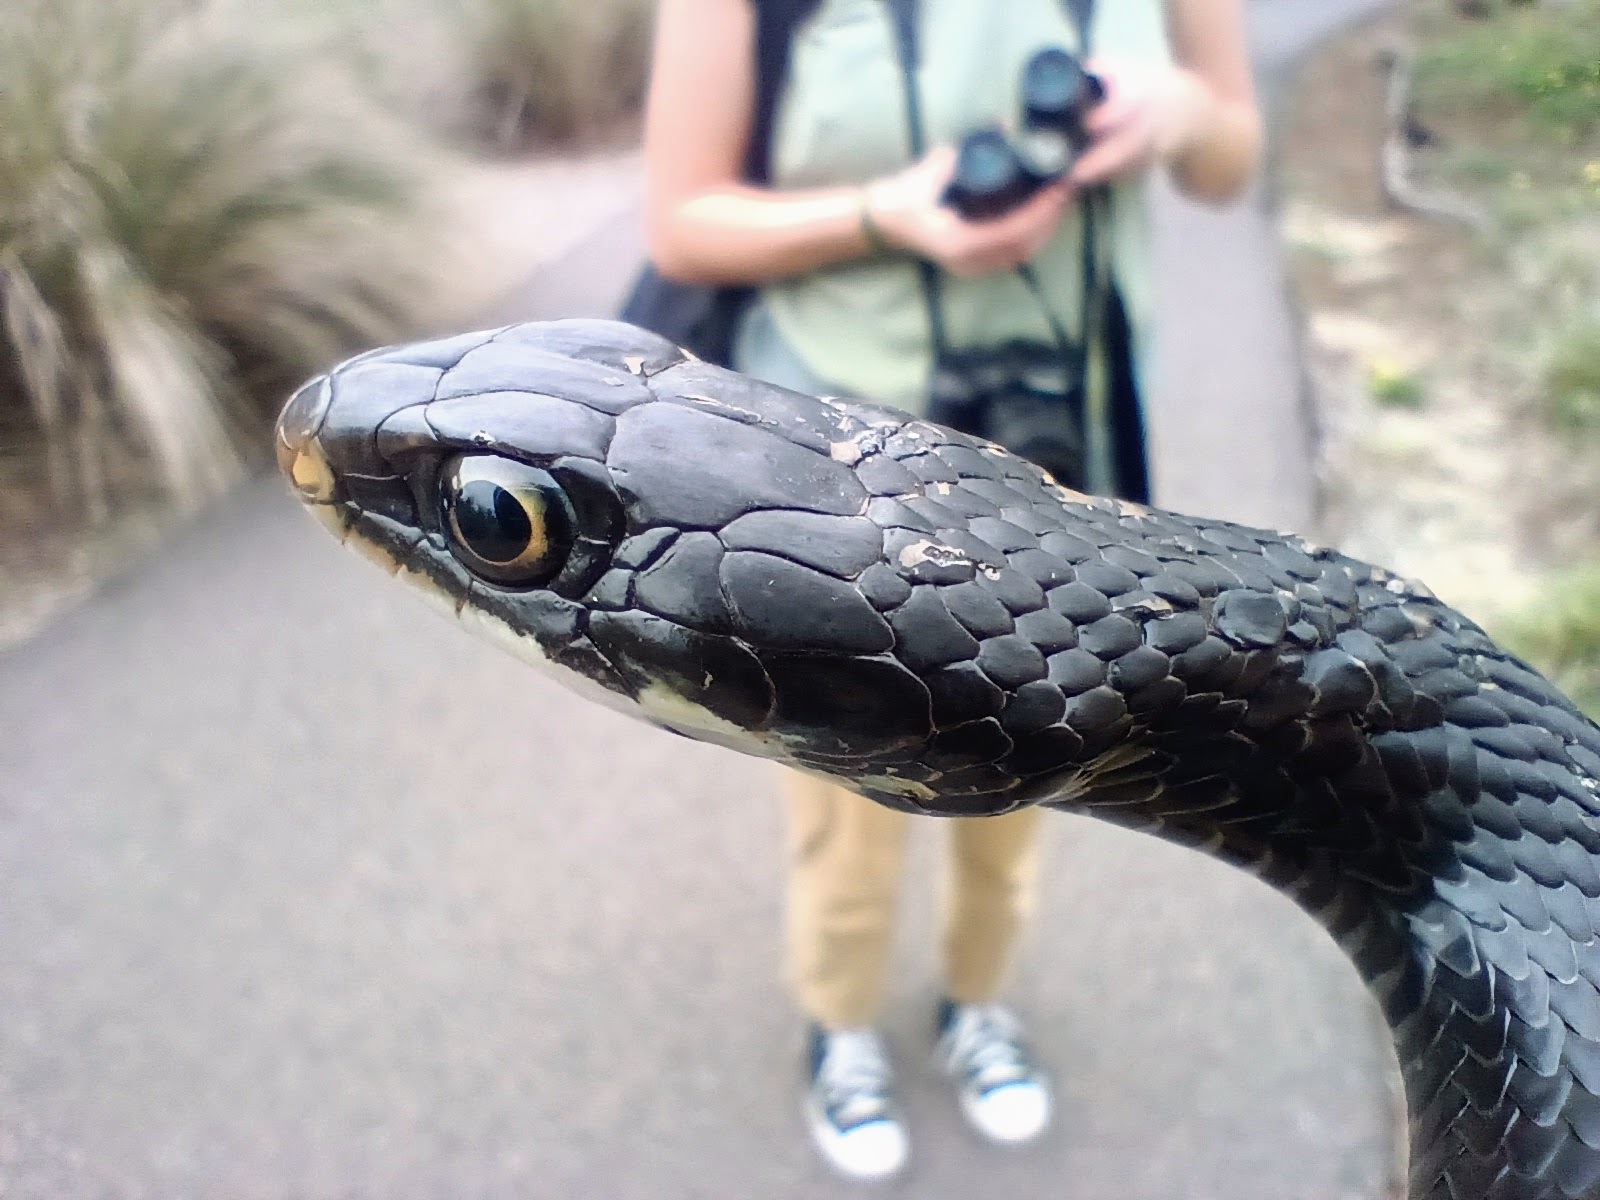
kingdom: Animalia
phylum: Chordata
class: Squamata
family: Colubridae
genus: Coluber
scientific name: Coluber constrictor
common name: Eastern racer
